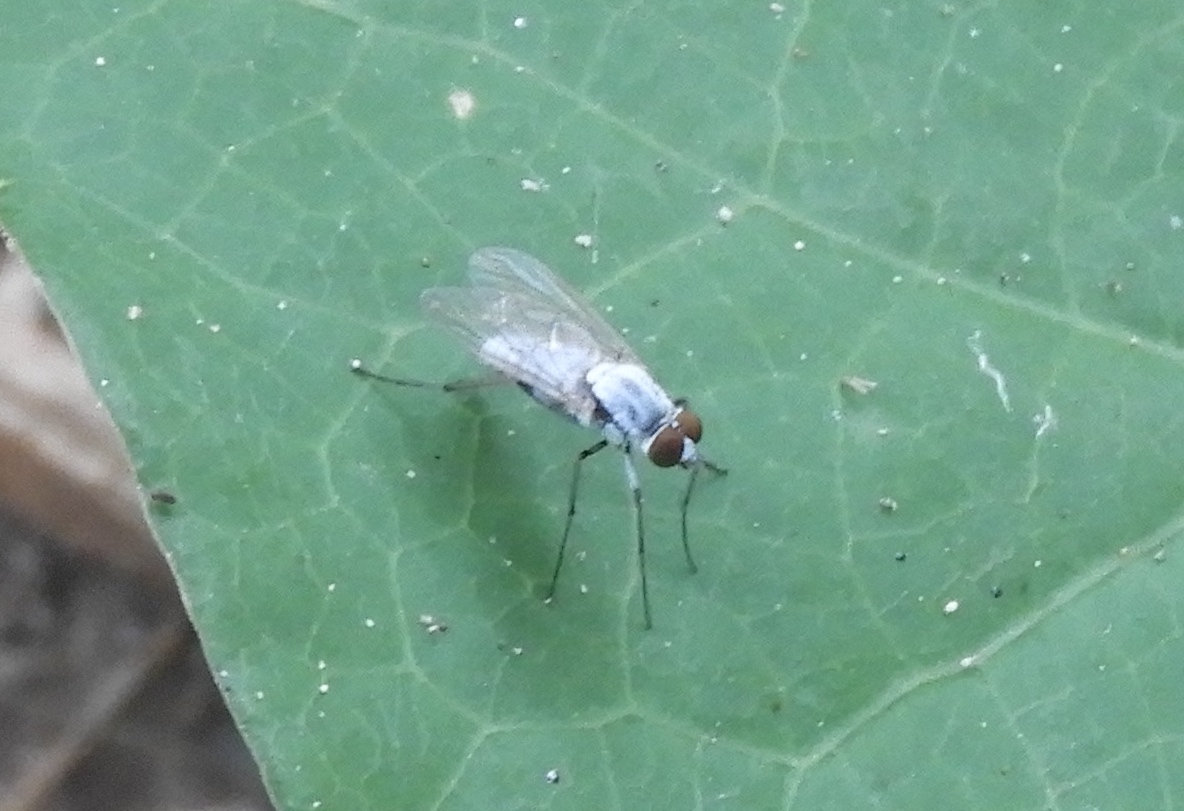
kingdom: Animalia
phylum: Arthropoda
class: Insecta
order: Diptera
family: Therevidae
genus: Penniverpa
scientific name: Penniverpa
